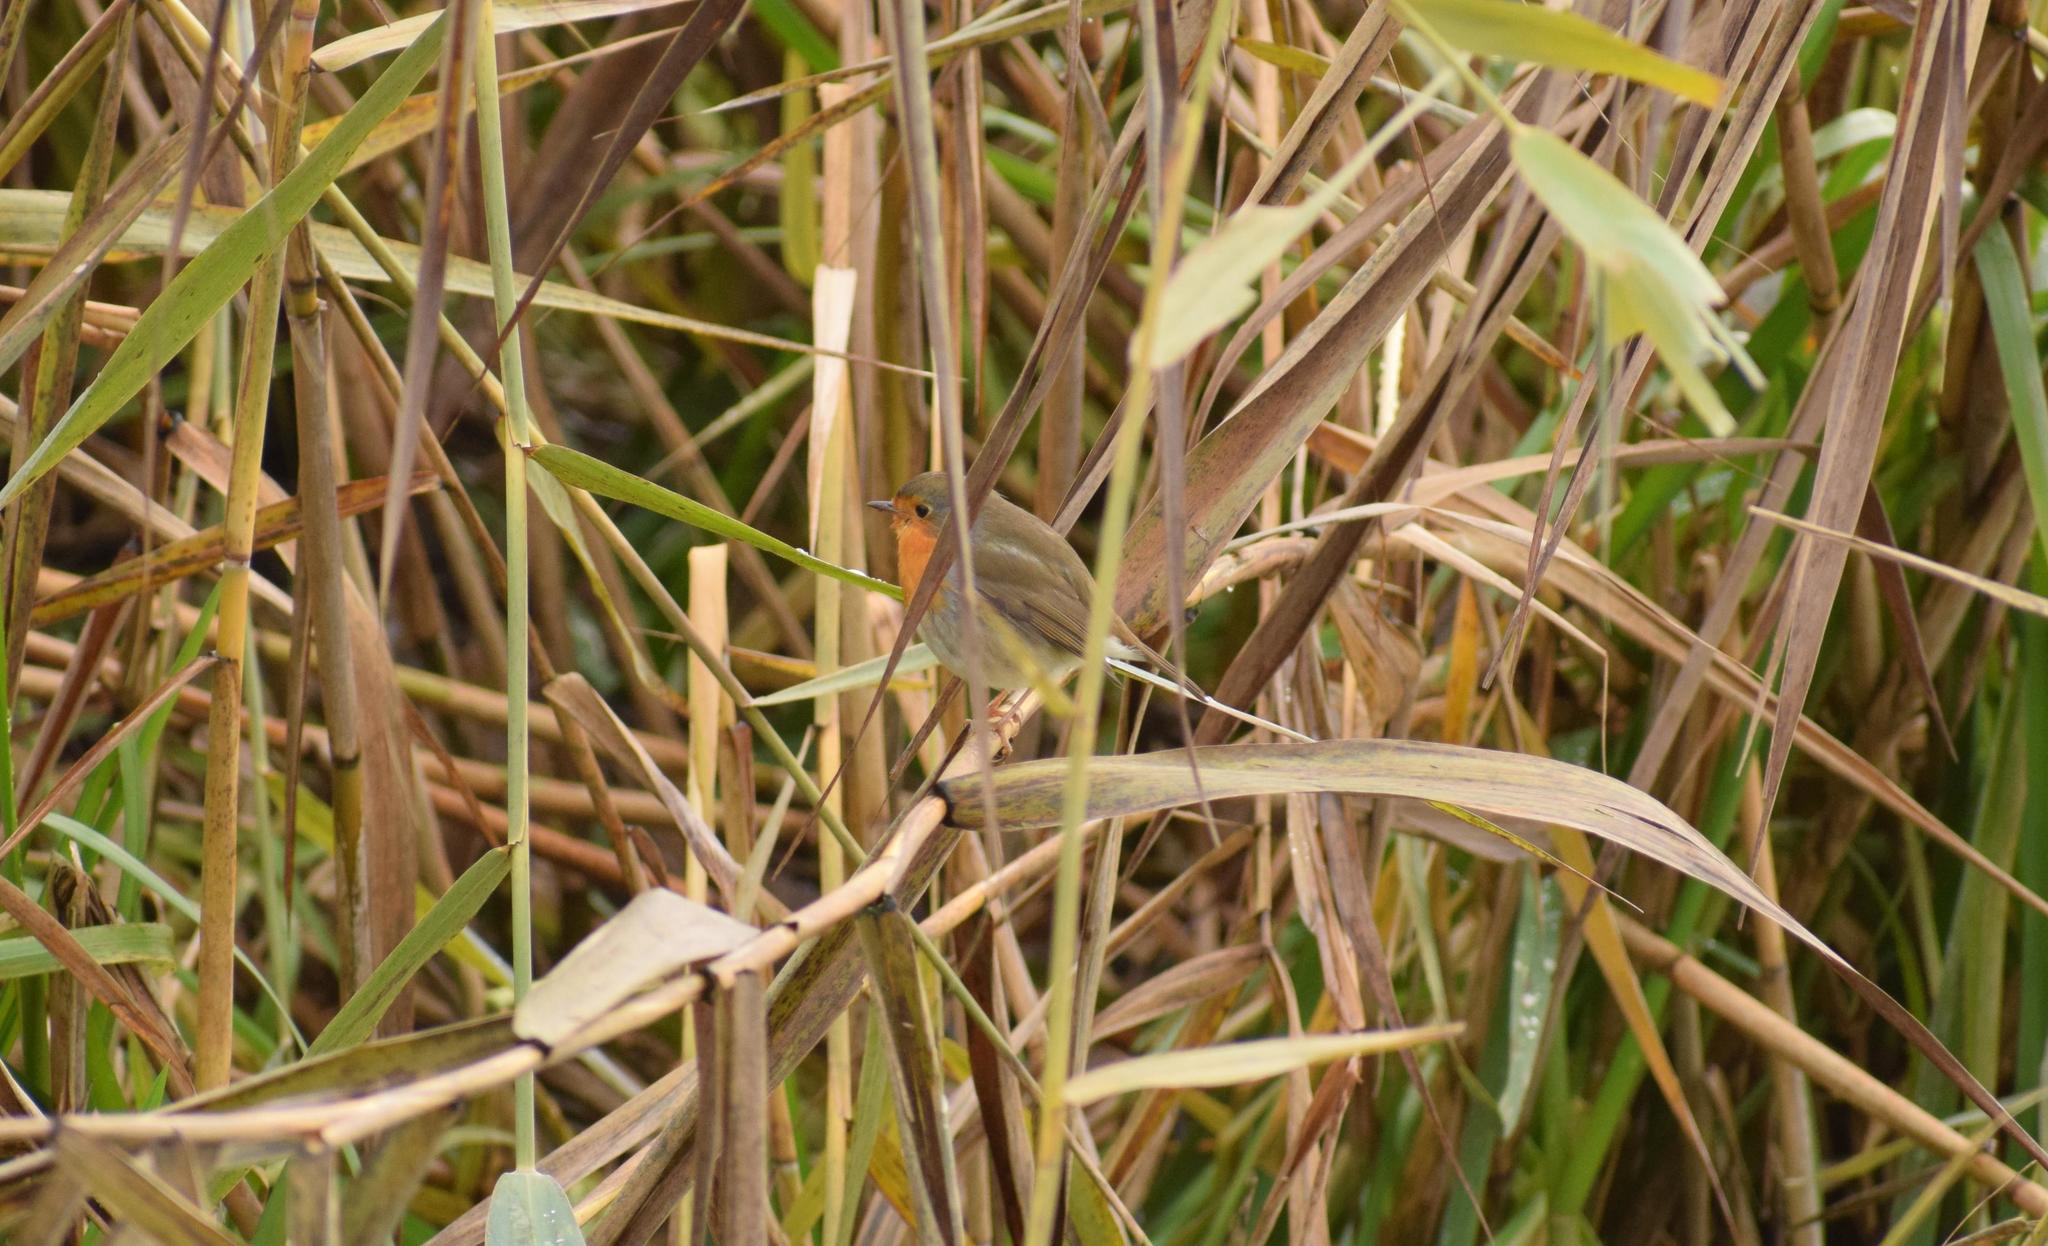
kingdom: Animalia
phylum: Chordata
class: Aves
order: Passeriformes
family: Muscicapidae
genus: Erithacus
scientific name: Erithacus rubecula
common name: European robin
